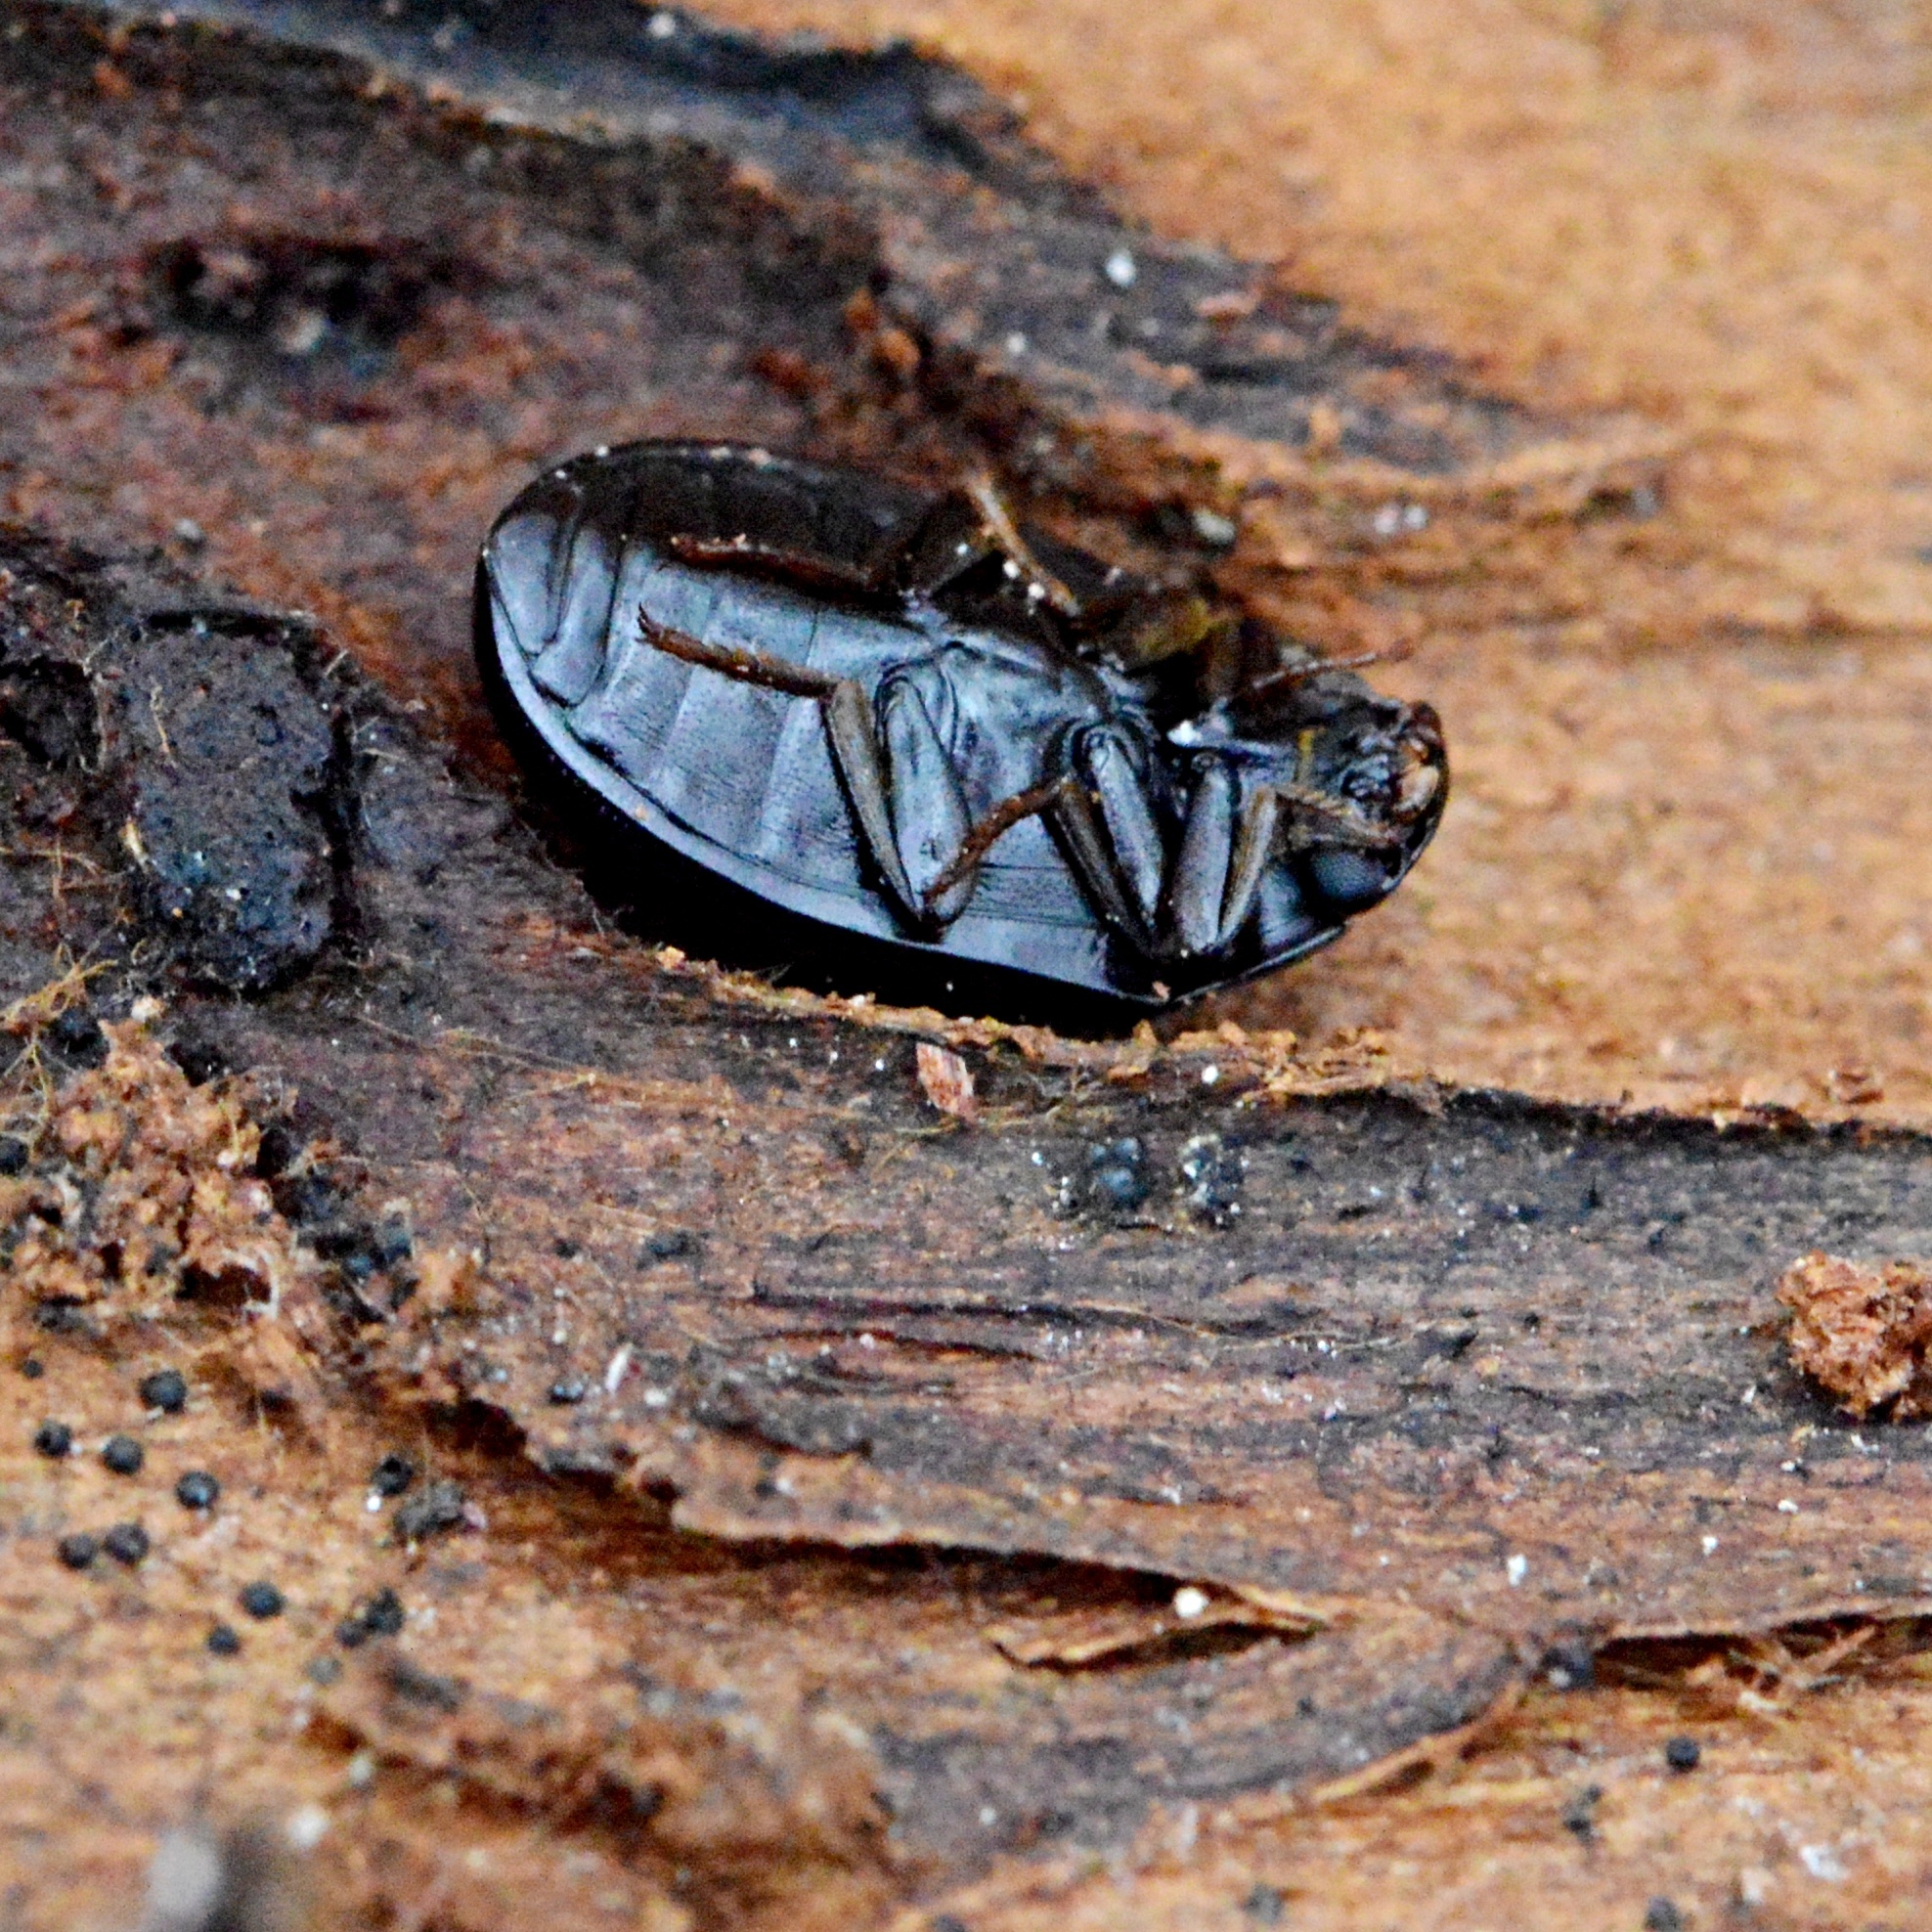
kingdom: Animalia
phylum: Arthropoda
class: Insecta
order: Coleoptera
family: Tenebrionidae
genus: Platydema
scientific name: Platydema violaceum
